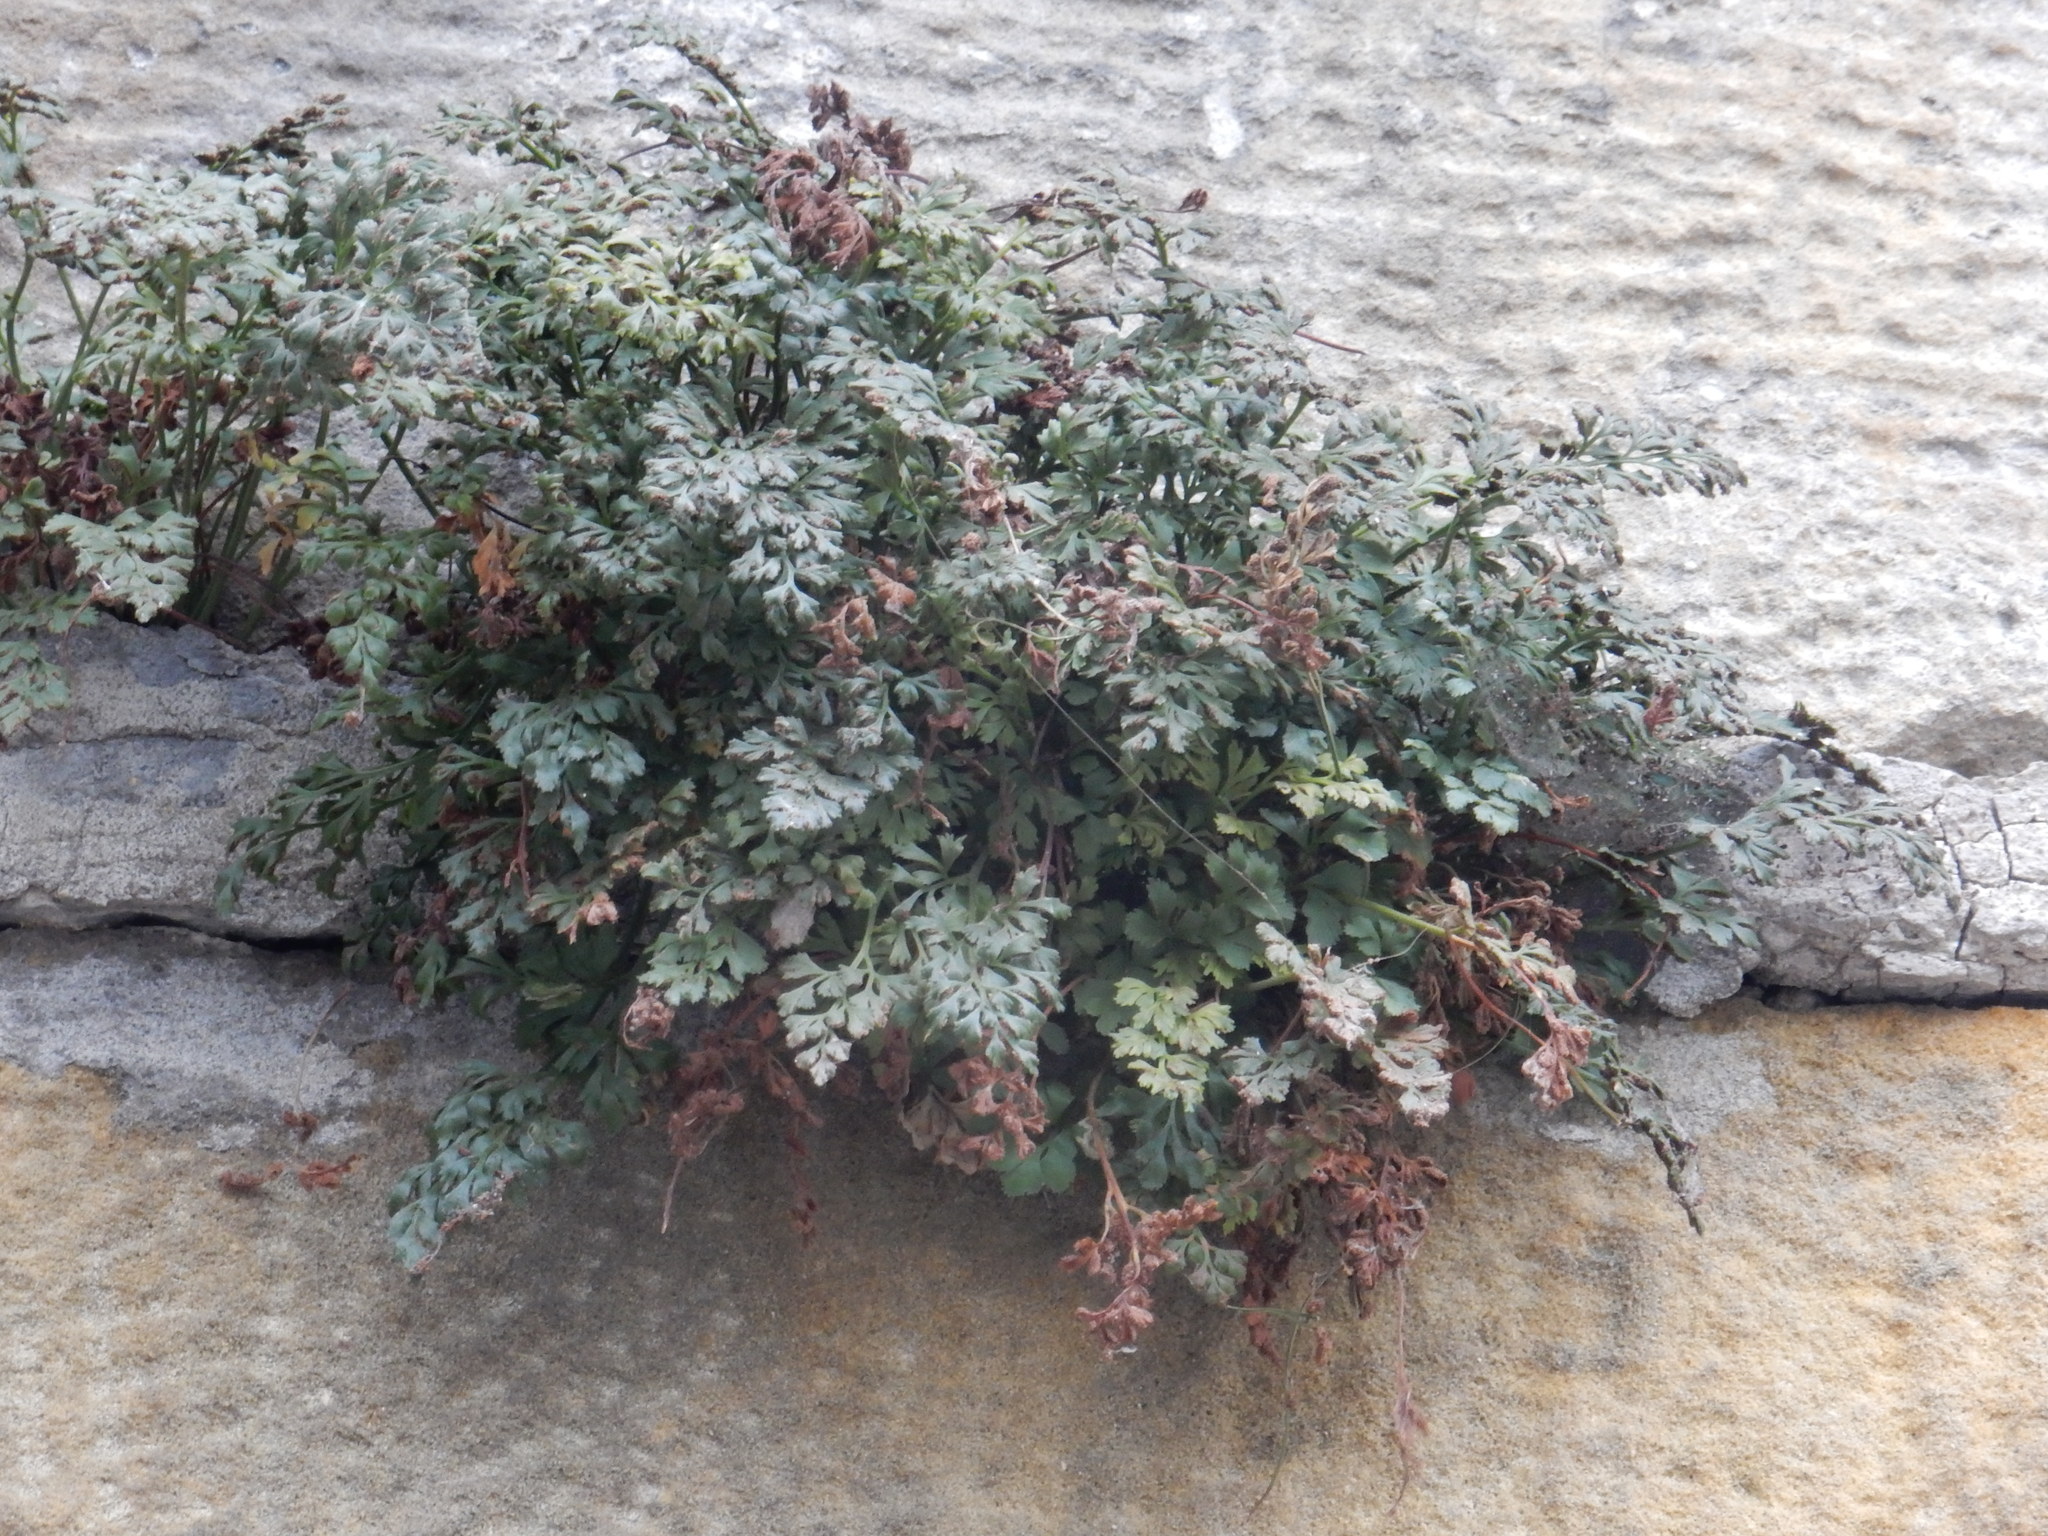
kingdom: Plantae
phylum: Tracheophyta
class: Polypodiopsida
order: Polypodiales
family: Aspleniaceae
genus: Asplenium
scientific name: Asplenium ruta-muraria
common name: Wall-rue
